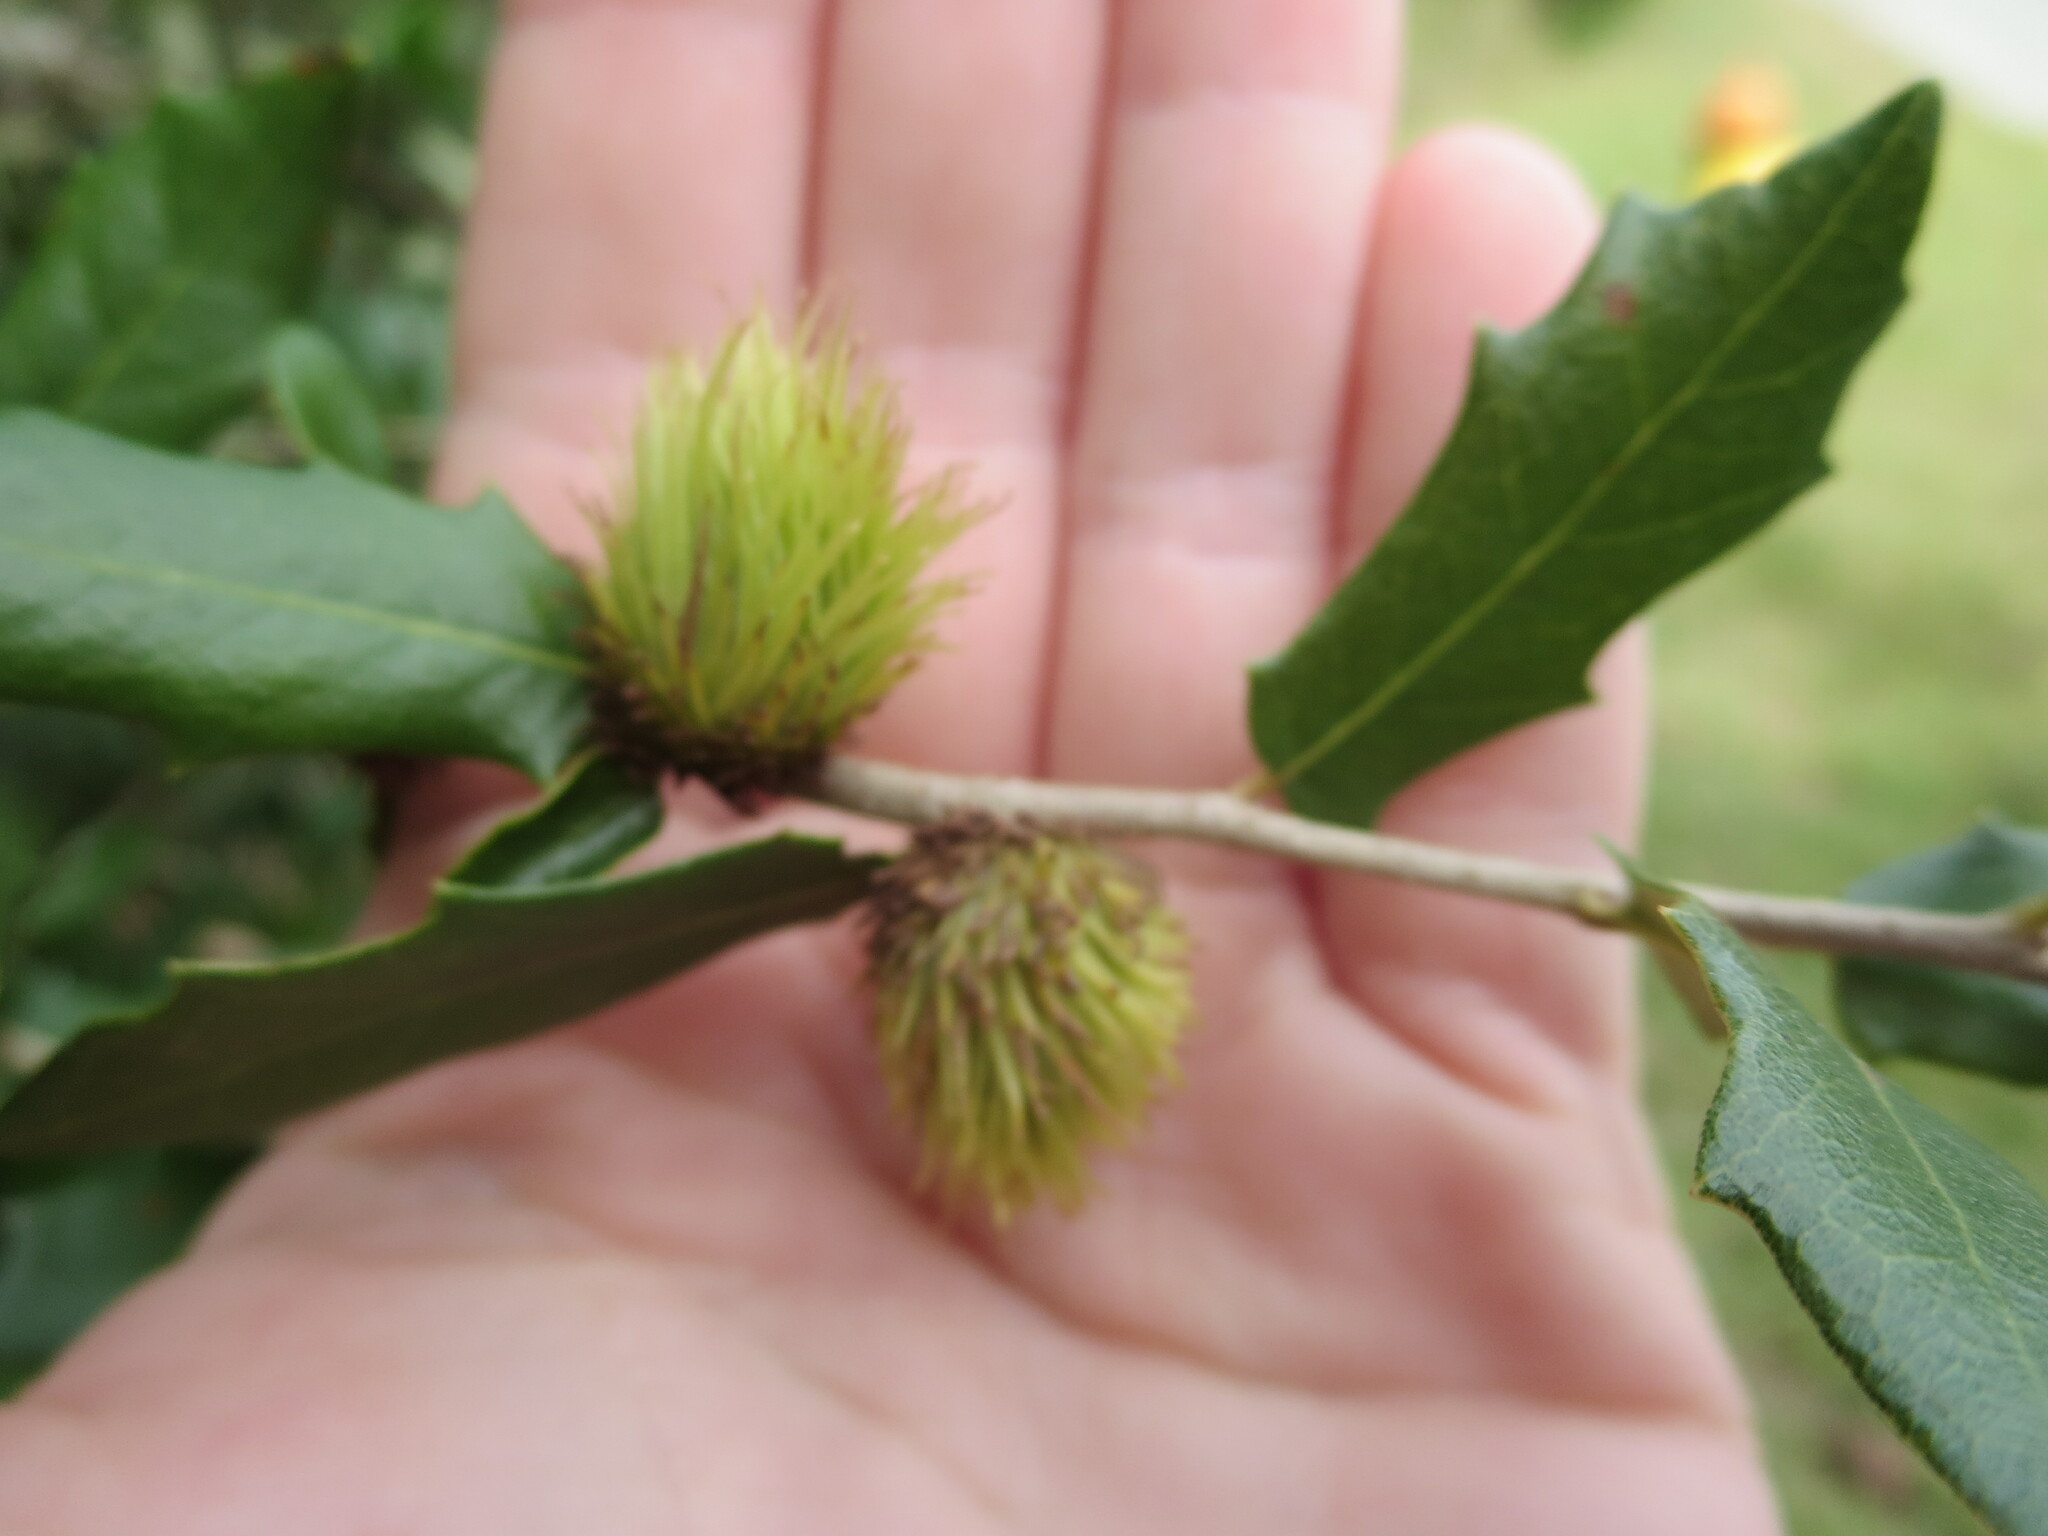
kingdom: Animalia
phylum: Arthropoda
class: Insecta
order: Hymenoptera
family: Cynipidae
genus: Andricus
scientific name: Andricus quercusfoliatus
